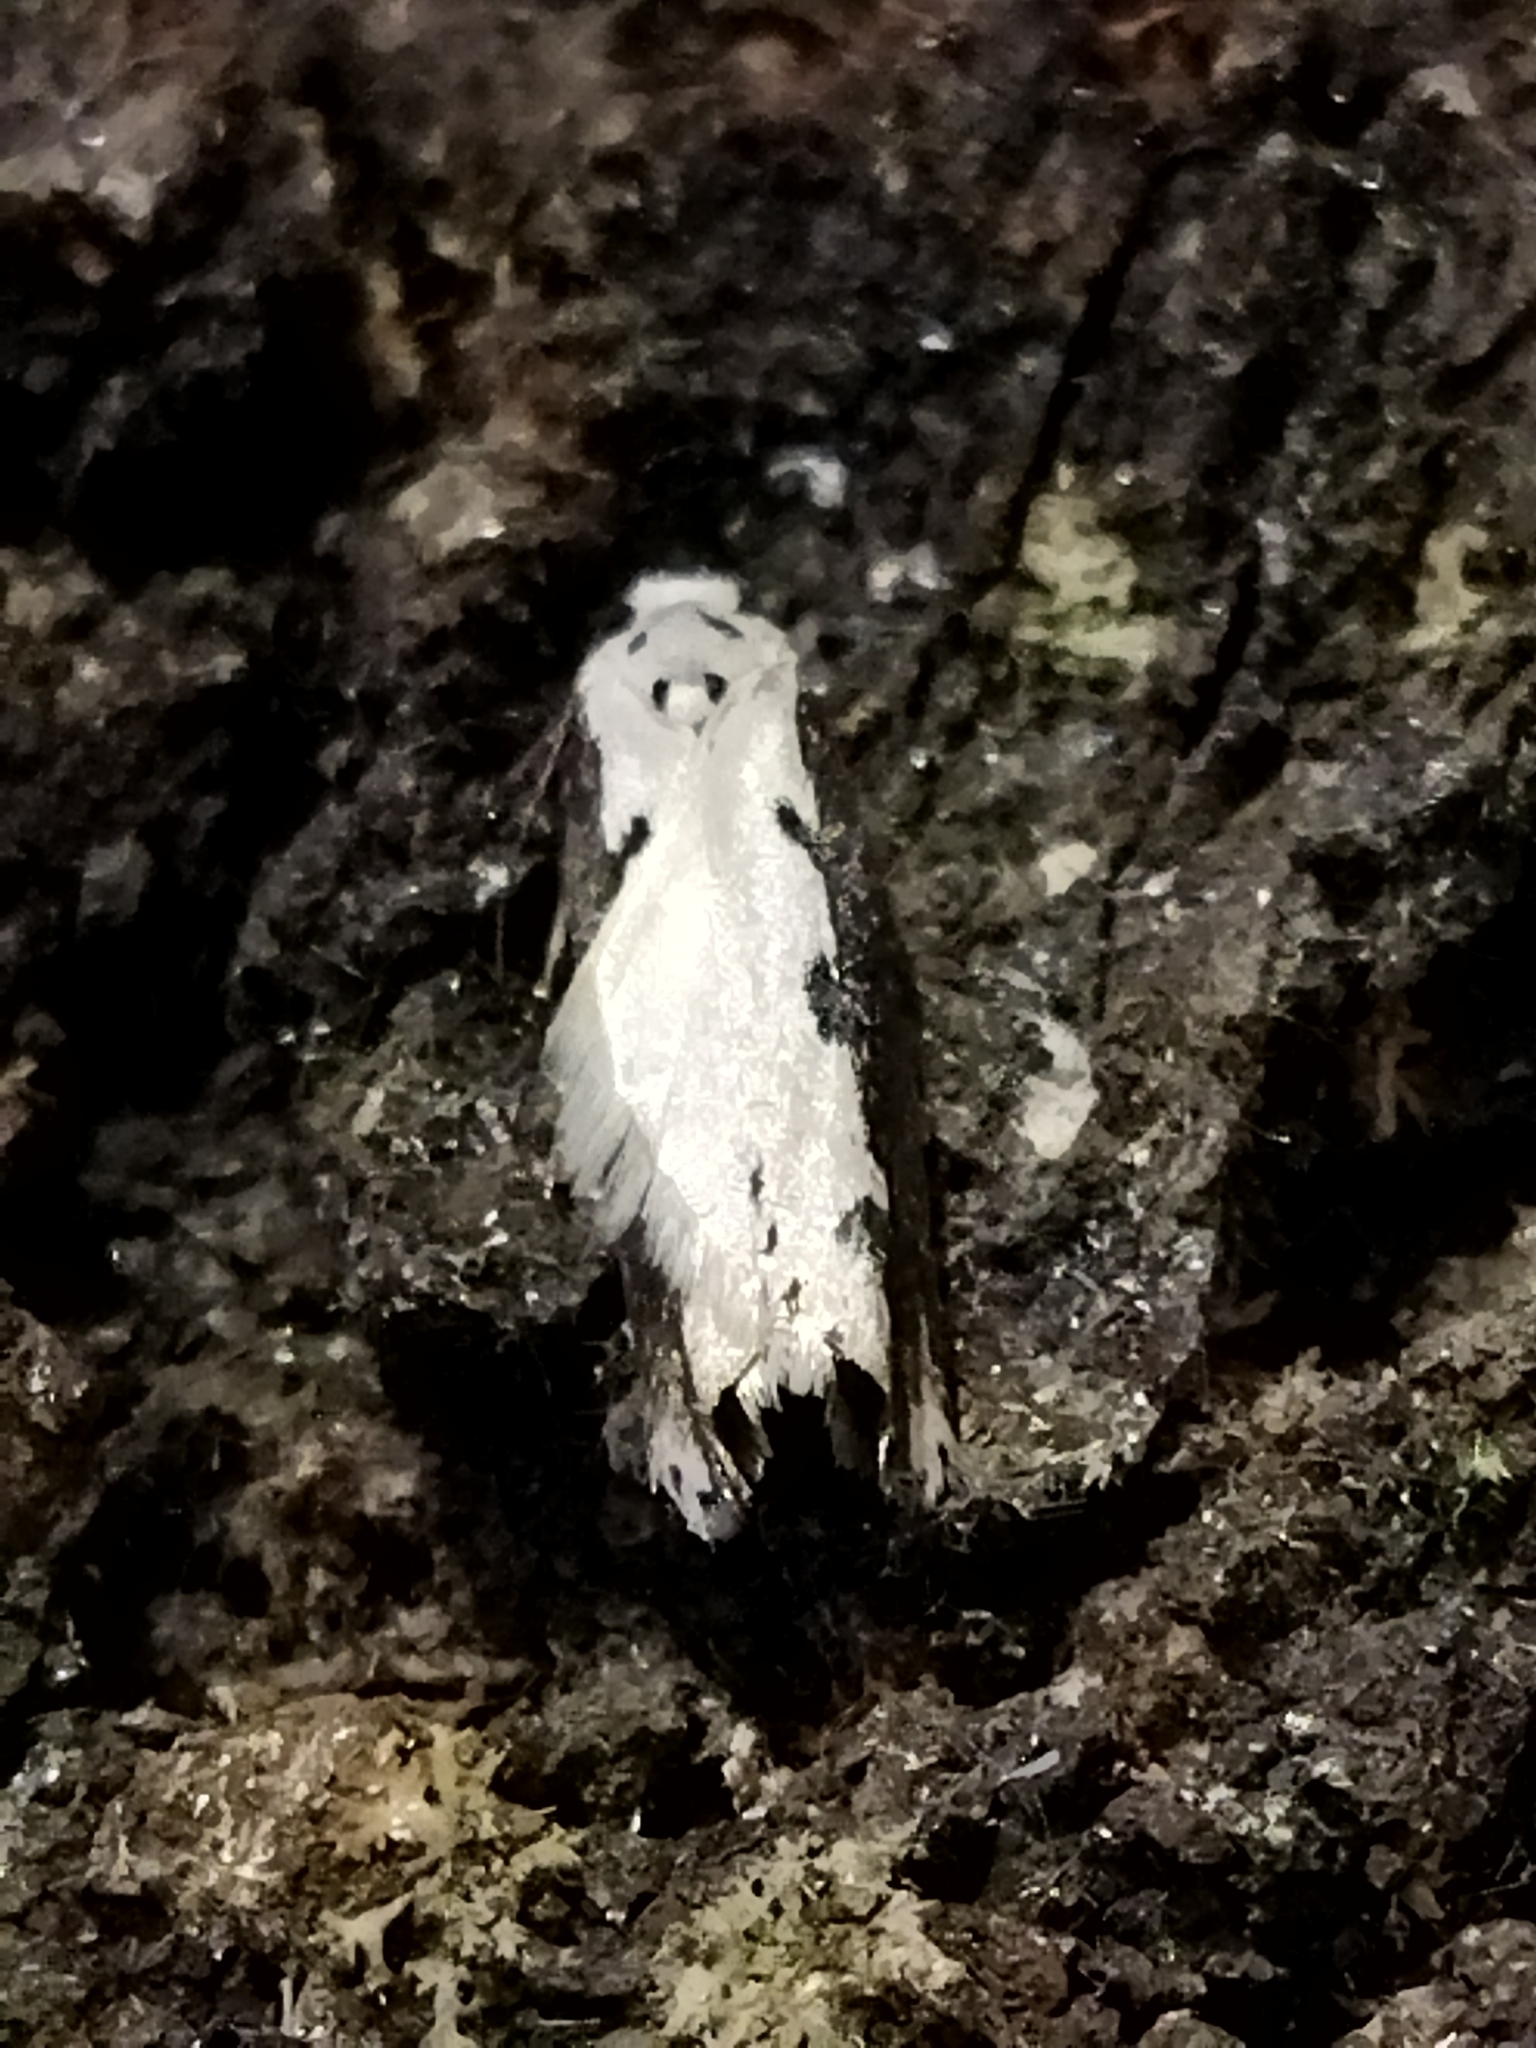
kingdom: Animalia
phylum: Arthropoda
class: Insecta
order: Lepidoptera
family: Ethmiidae
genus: Ethmia
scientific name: Ethmia bipunctella
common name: Bordered ermel
